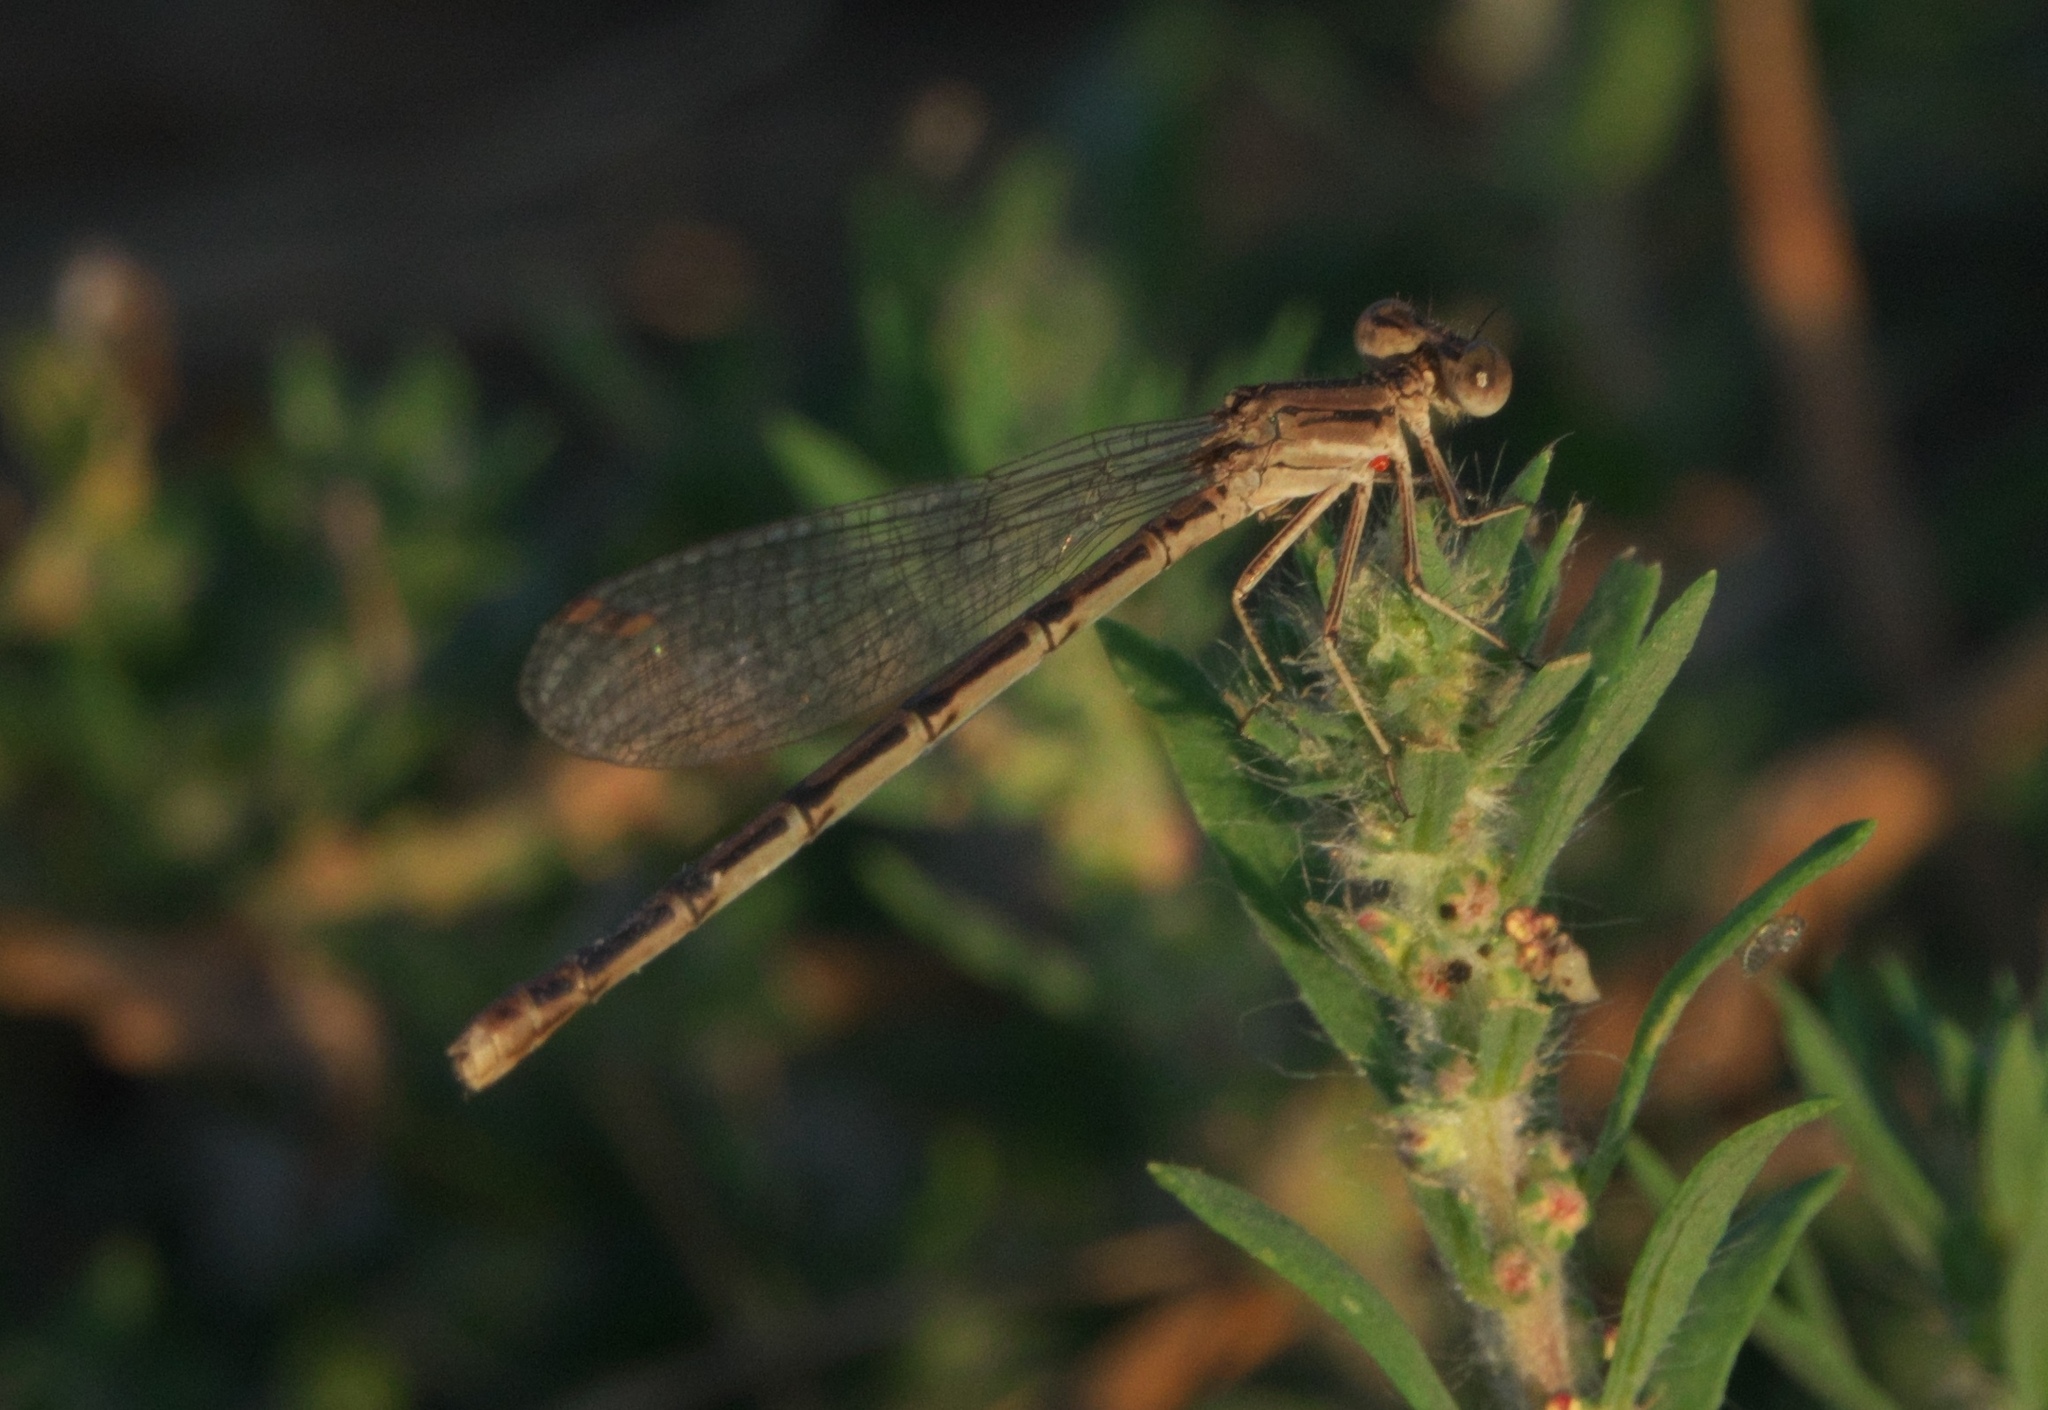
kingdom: Animalia
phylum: Arthropoda
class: Insecta
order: Odonata
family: Coenagrionidae
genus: Argia
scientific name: Argia fumipennis
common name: Variable dancer
